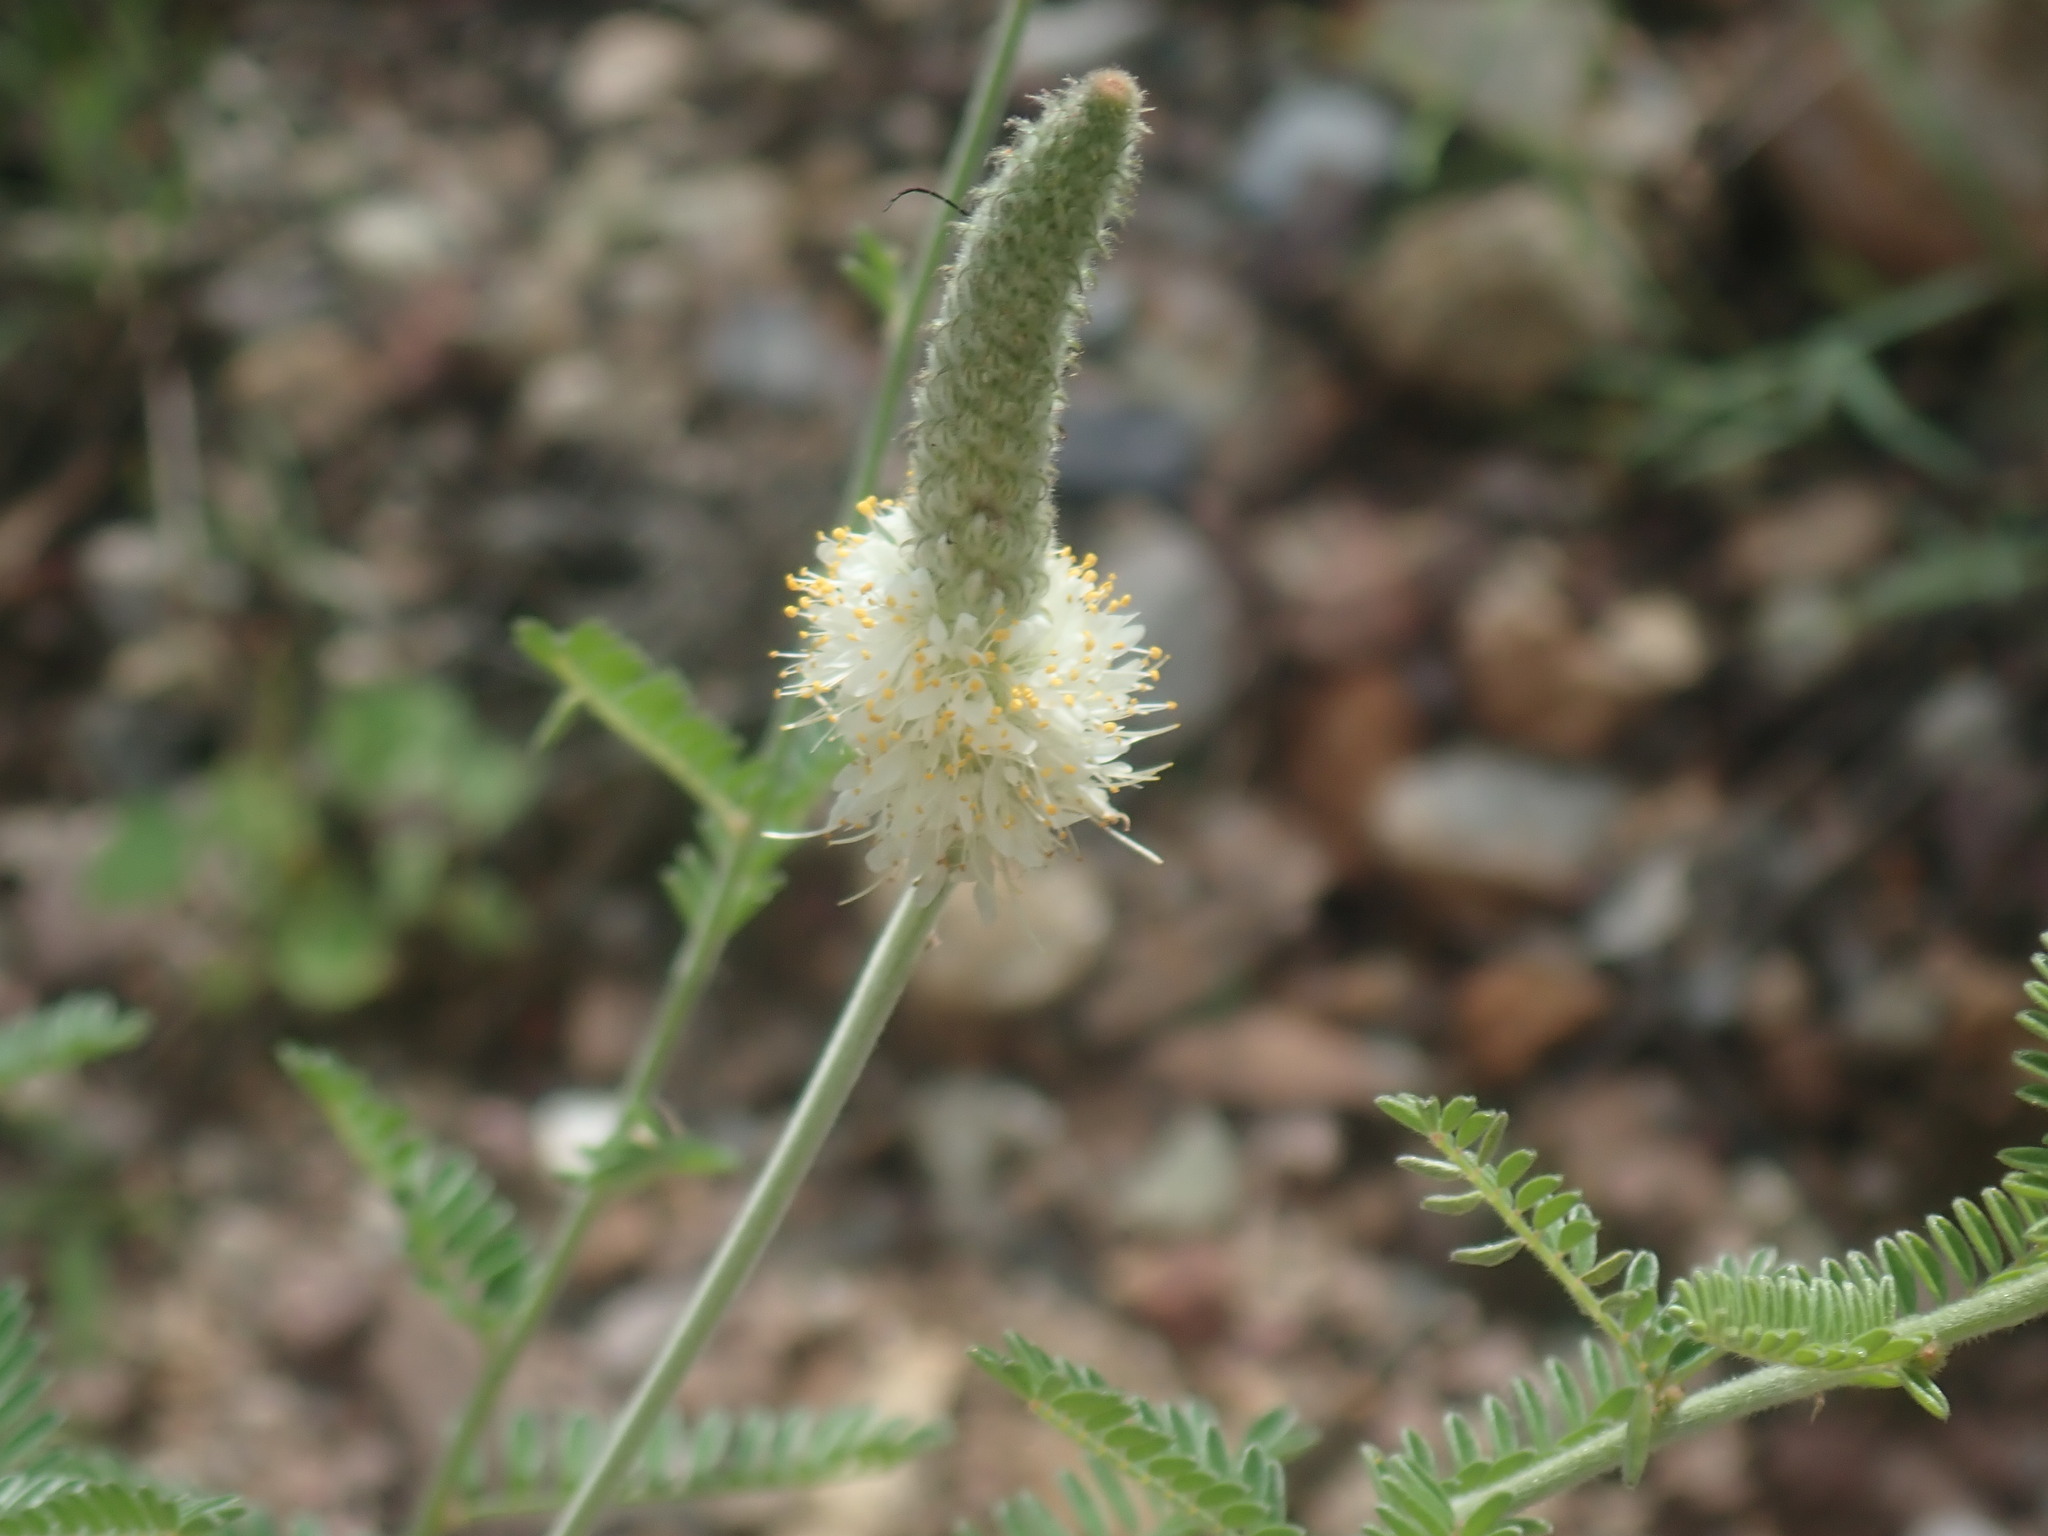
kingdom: Plantae
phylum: Tracheophyta
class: Magnoliopsida
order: Fabales
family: Fabaceae
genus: Dalea
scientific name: Dalea albiflora
